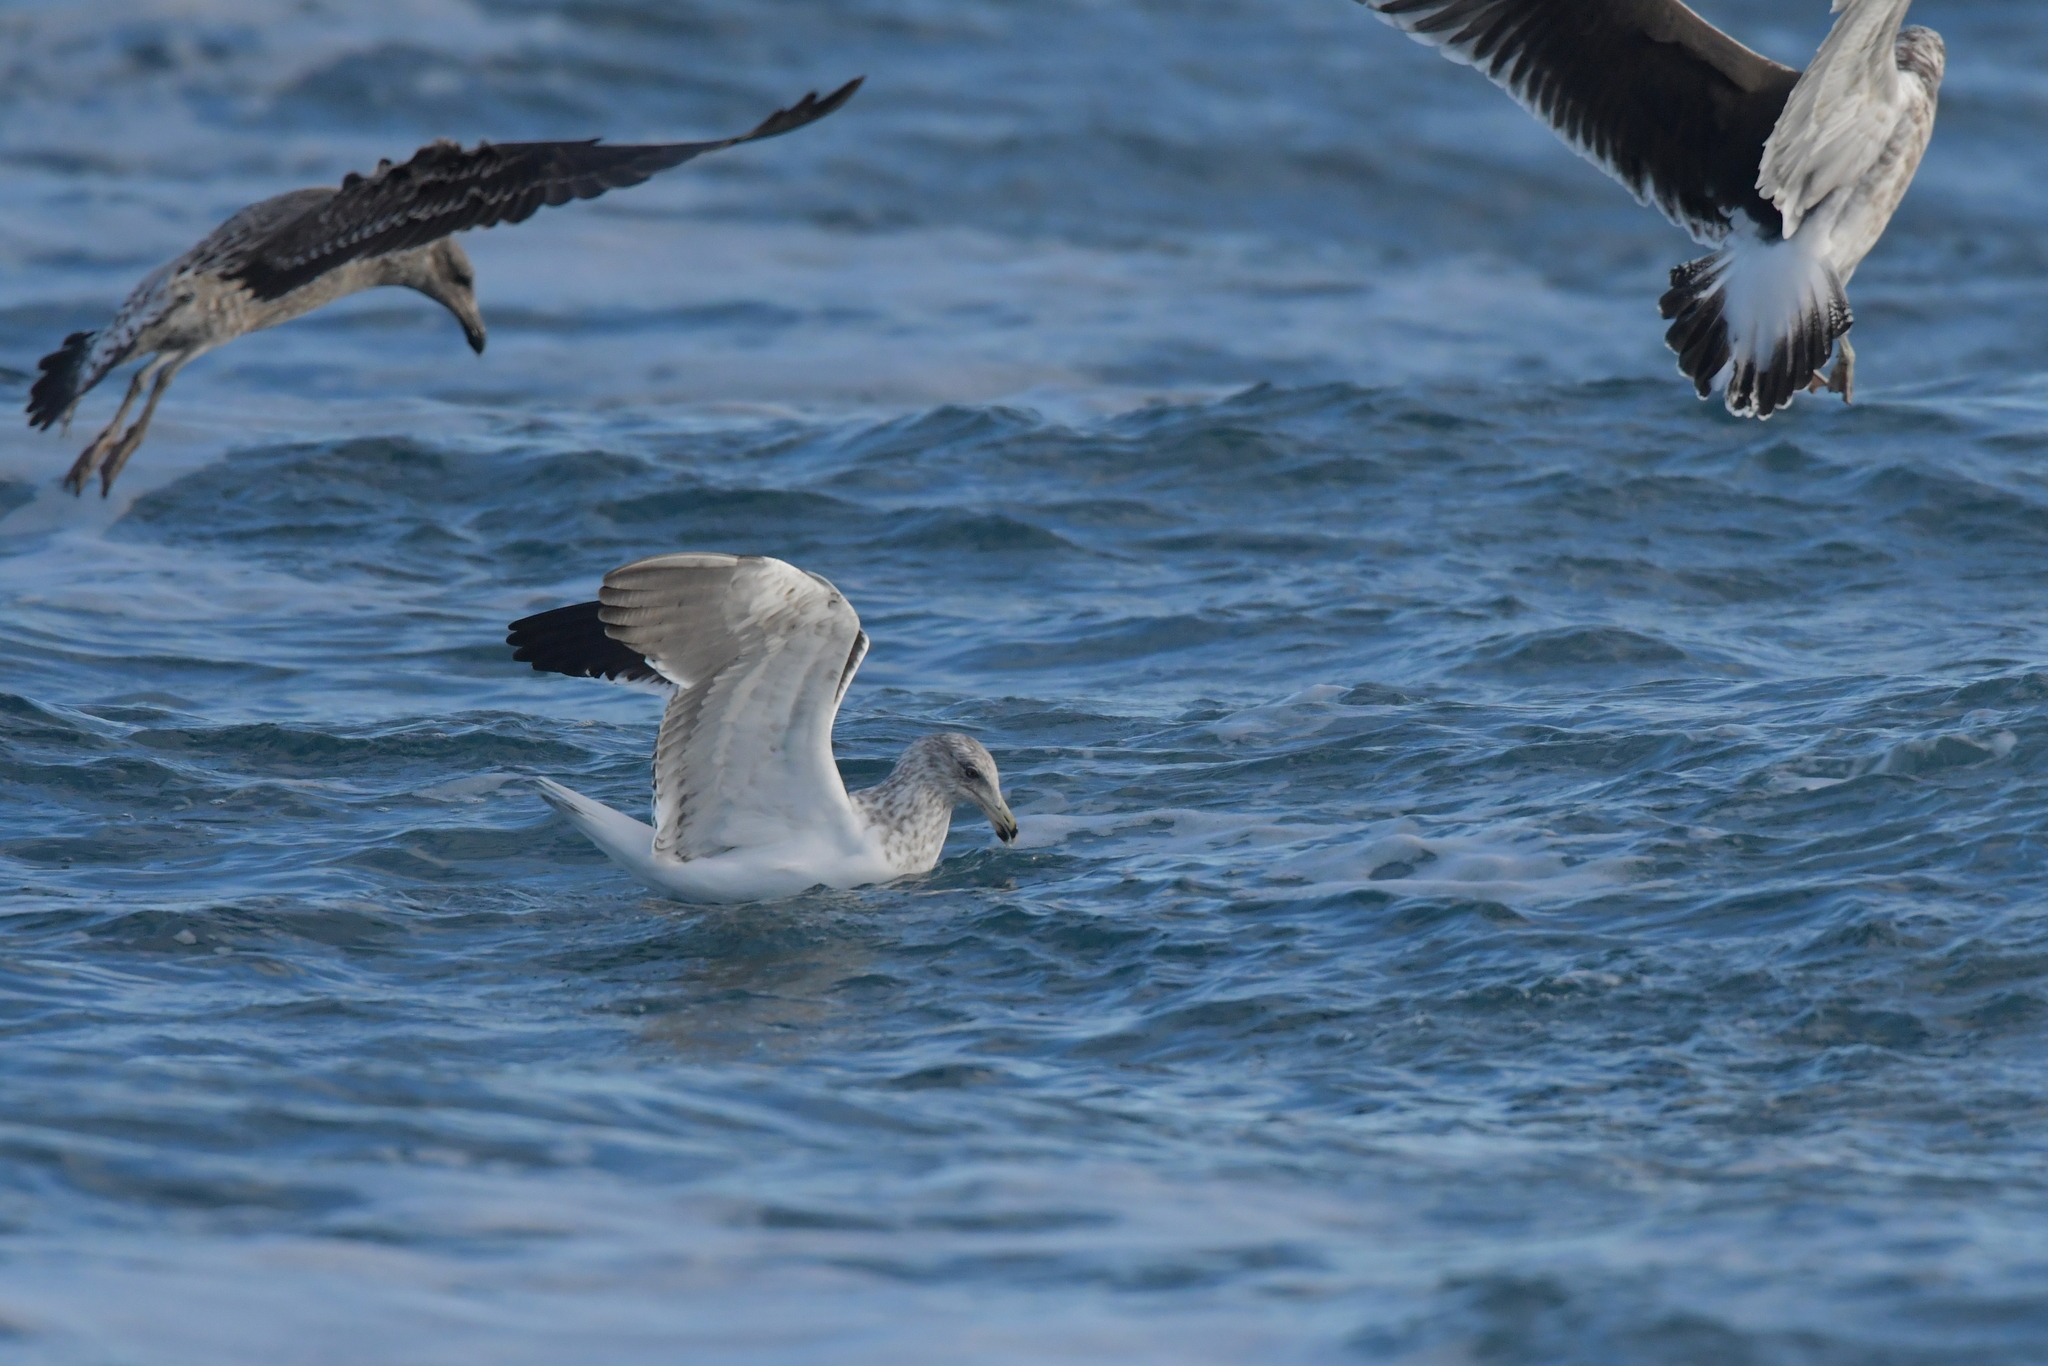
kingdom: Animalia
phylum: Chordata
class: Aves
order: Charadriiformes
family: Laridae
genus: Larus
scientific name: Larus dominicanus
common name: Kelp gull
